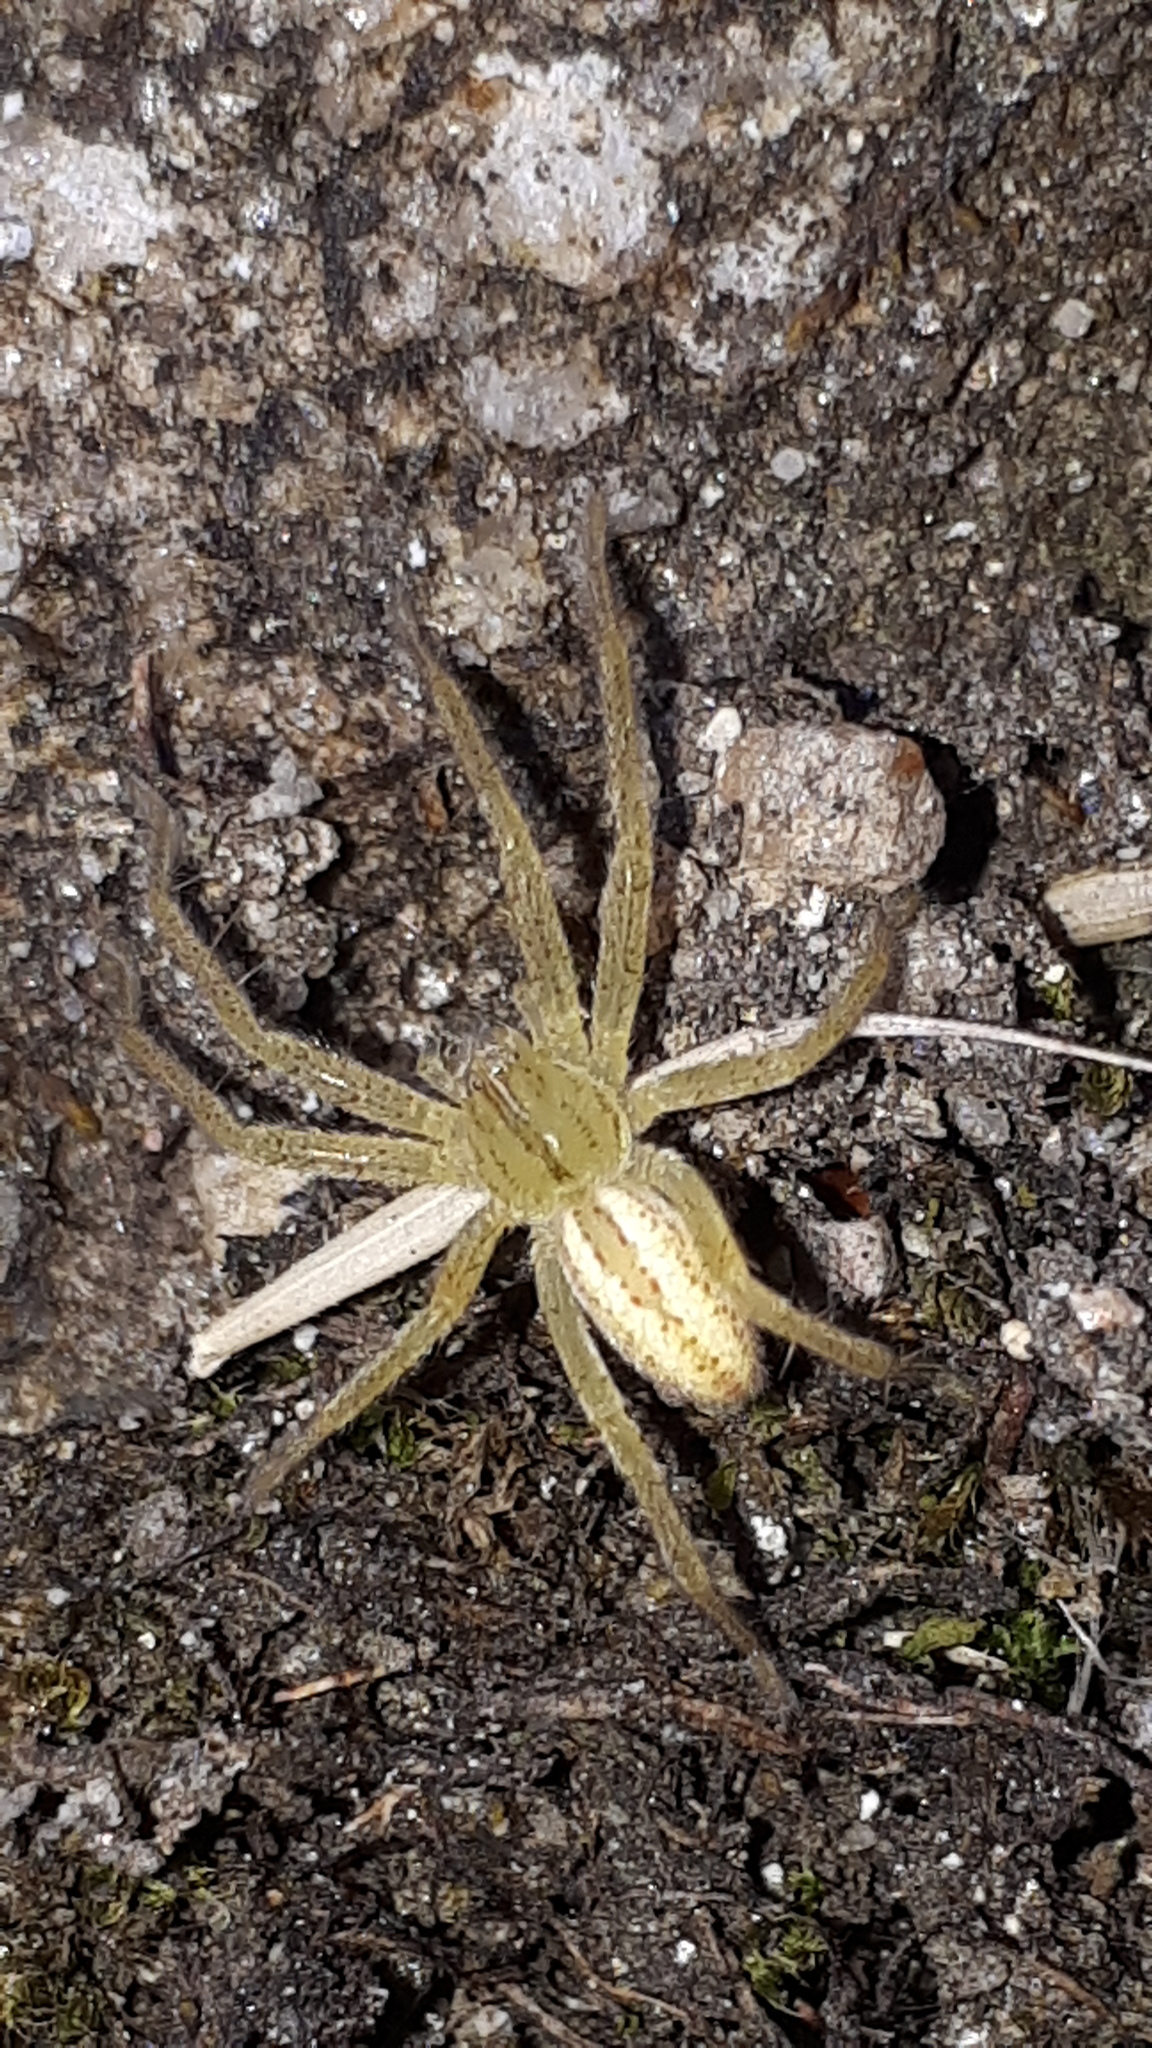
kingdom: Animalia
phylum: Arthropoda
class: Arachnida
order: Araneae
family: Sparassidae
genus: Micrommata
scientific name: Micrommata virescens
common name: Green spider
